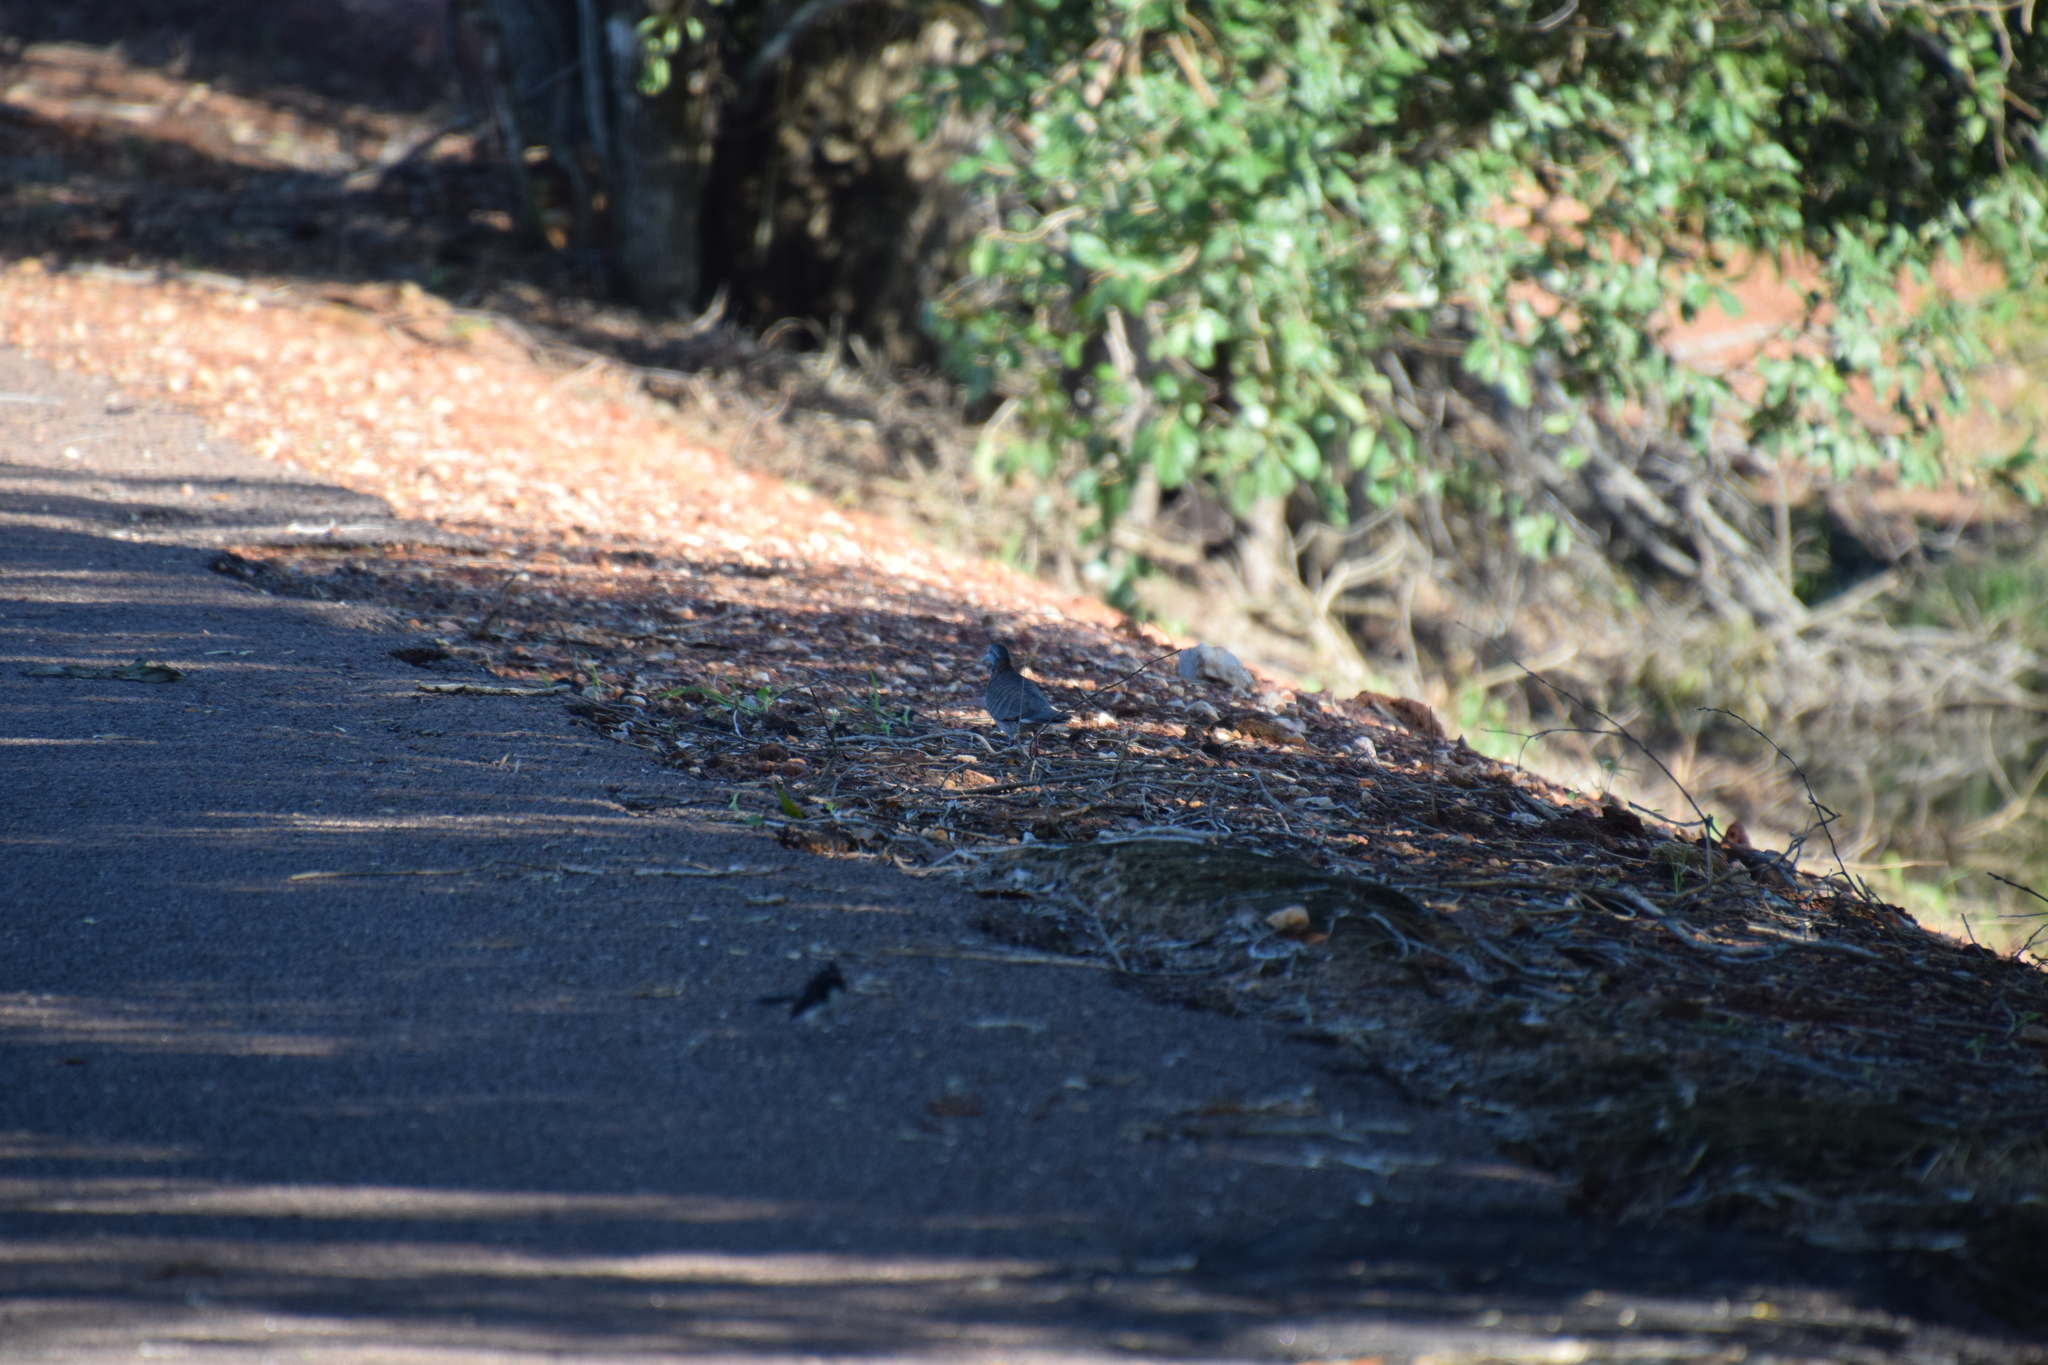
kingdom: Animalia
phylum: Chordata
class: Aves
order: Columbiformes
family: Columbidae
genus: Geopelia
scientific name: Geopelia humeralis
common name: Bar-shouldered dove
